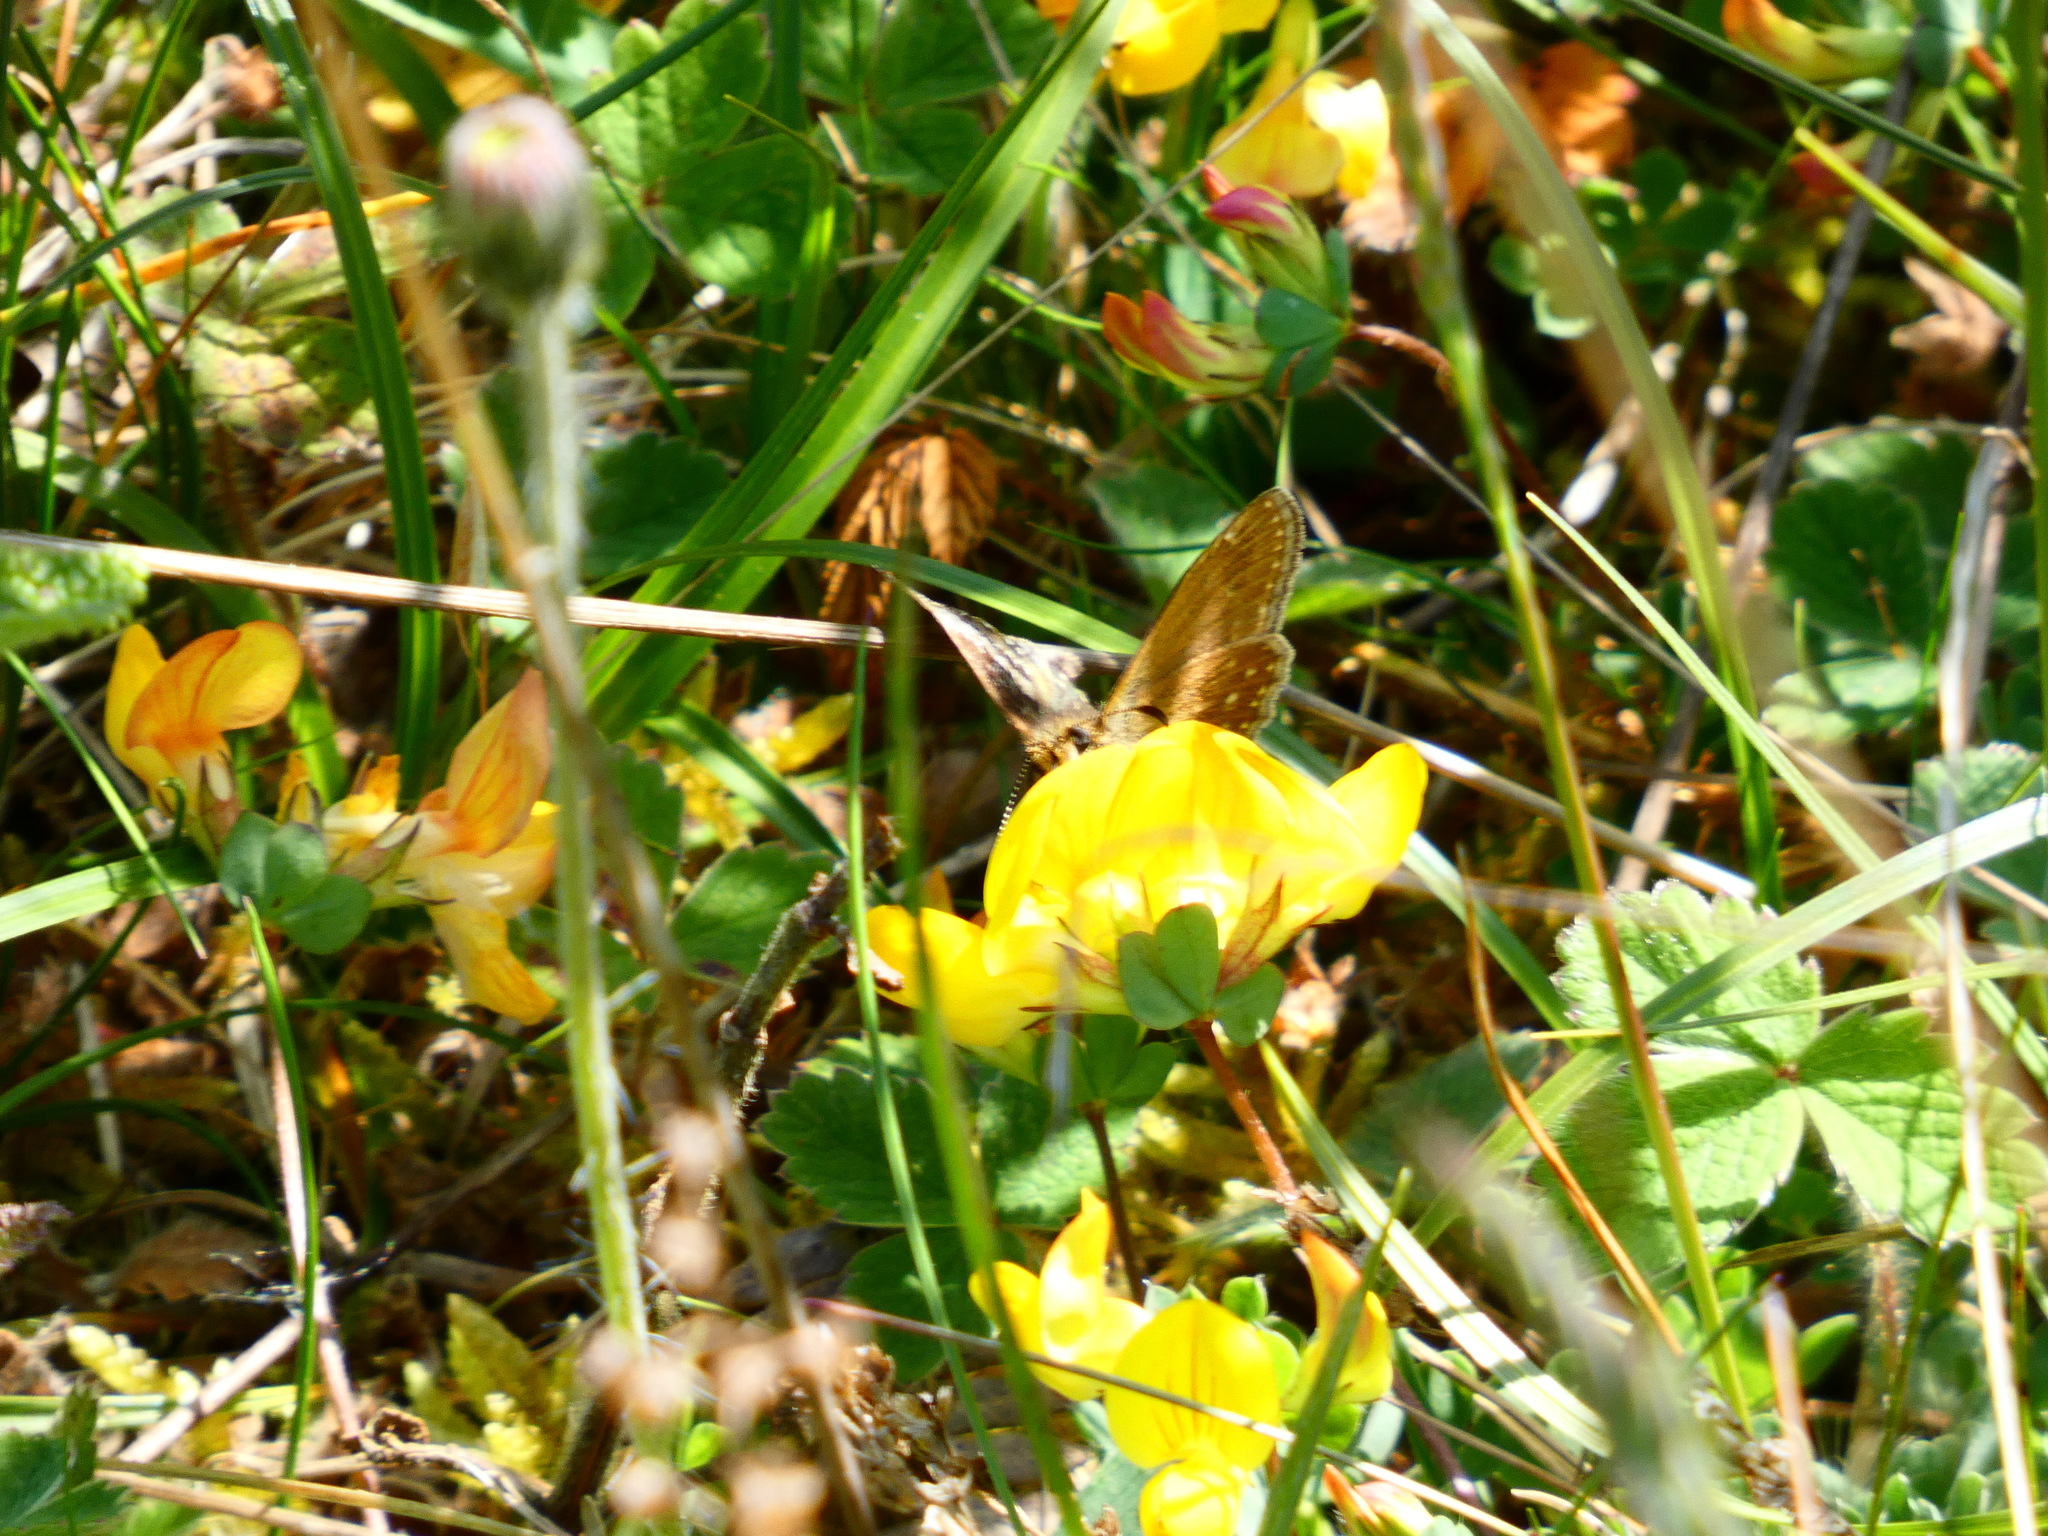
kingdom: Animalia
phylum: Arthropoda
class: Insecta
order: Lepidoptera
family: Hesperiidae
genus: Erynnis
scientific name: Erynnis tages
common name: Dingy skipper
